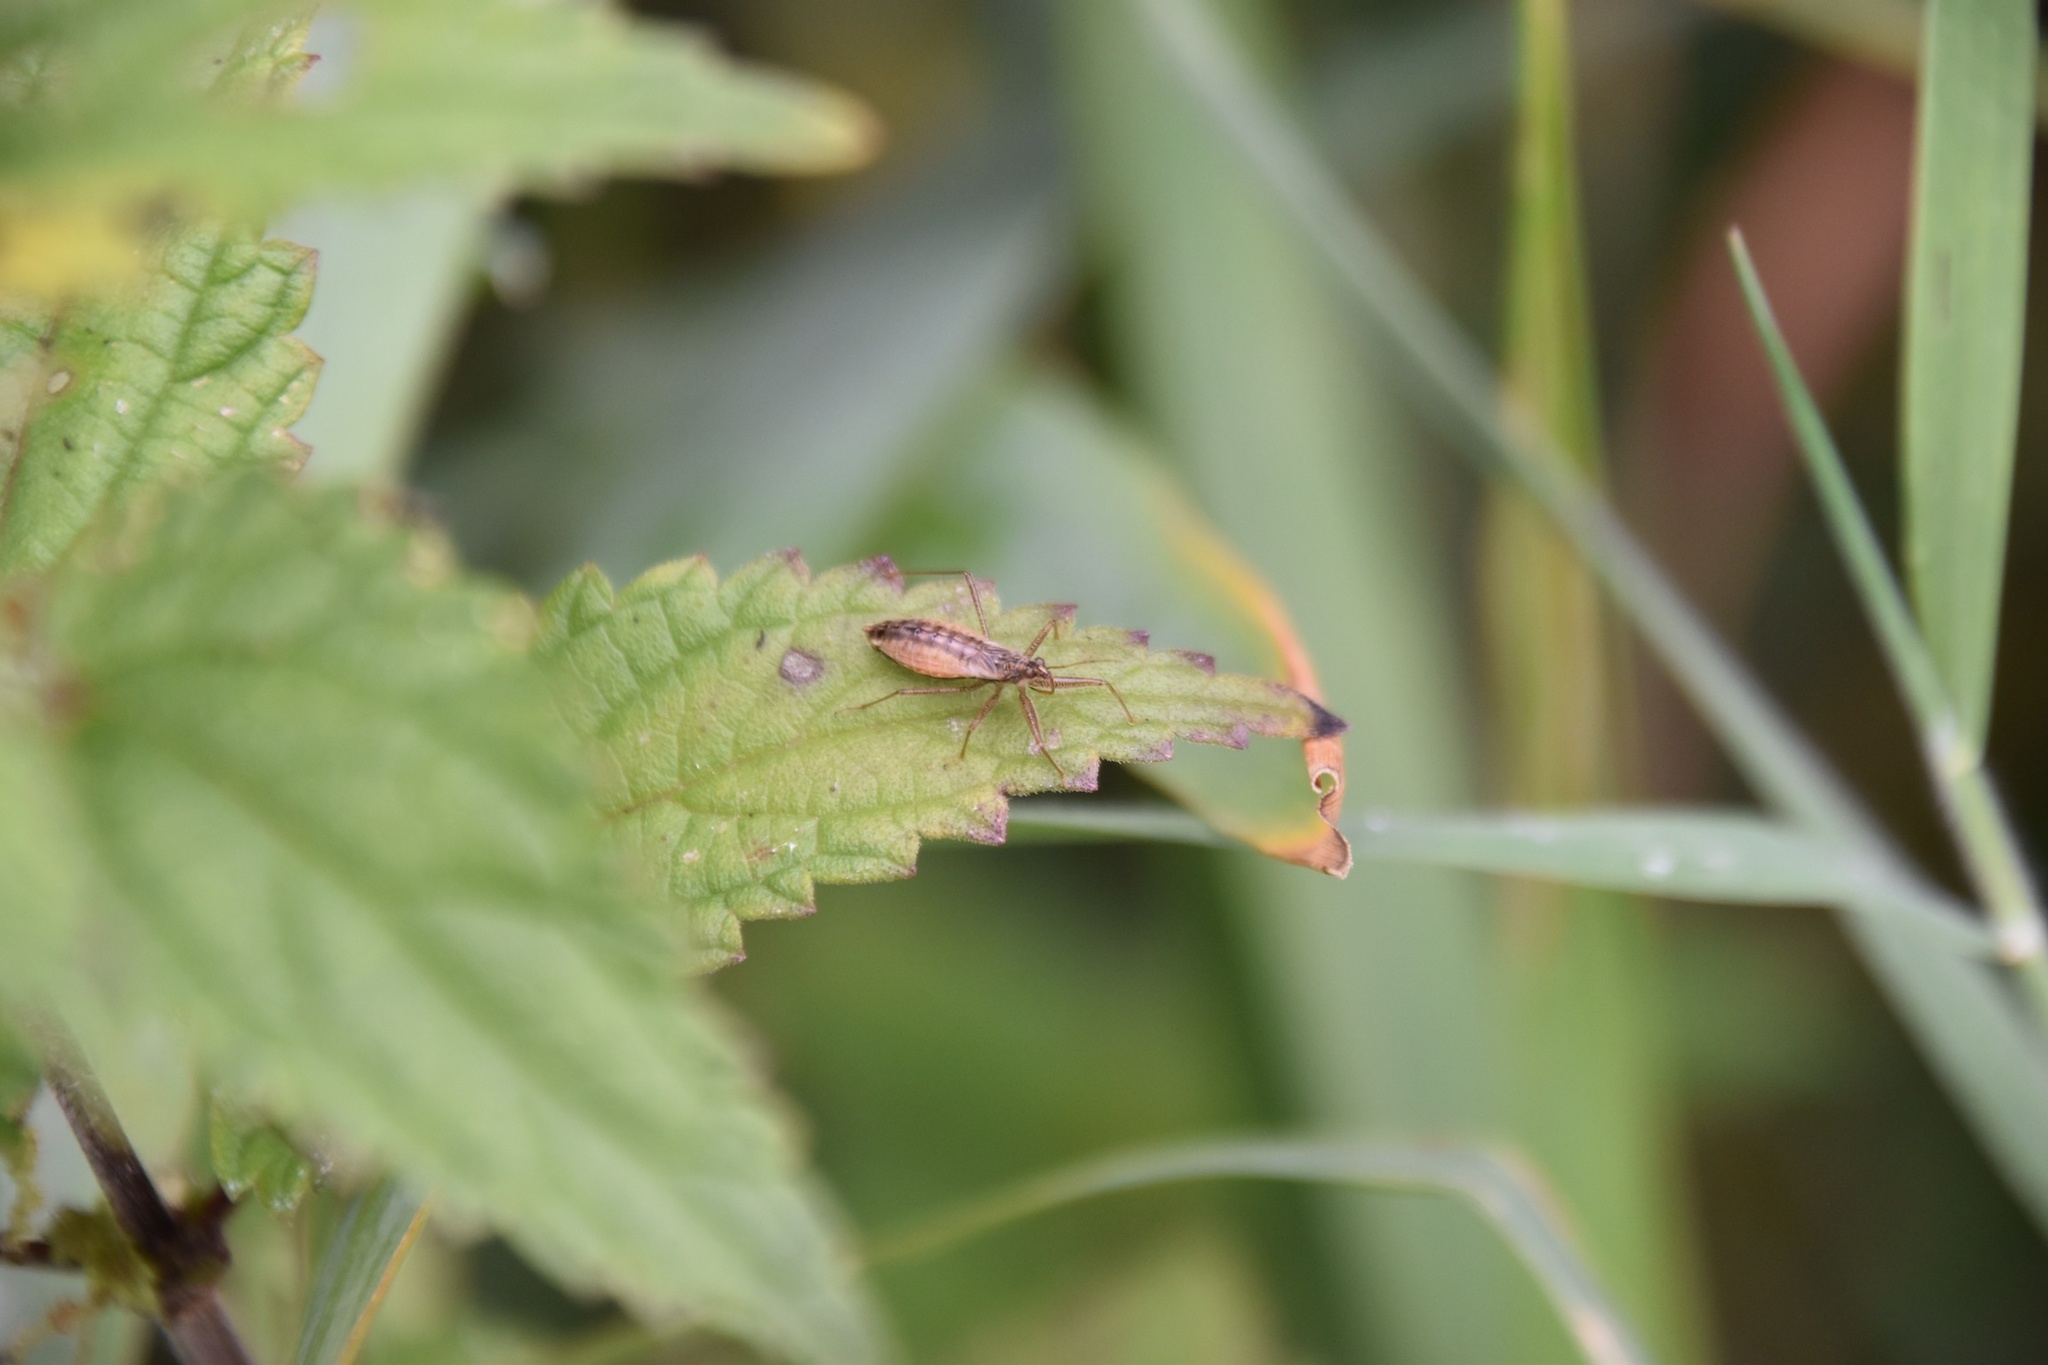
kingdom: Animalia
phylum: Arthropoda
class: Insecta
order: Hemiptera
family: Nabidae
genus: Nabis
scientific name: Nabis limbatus
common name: Marsh damselbug
